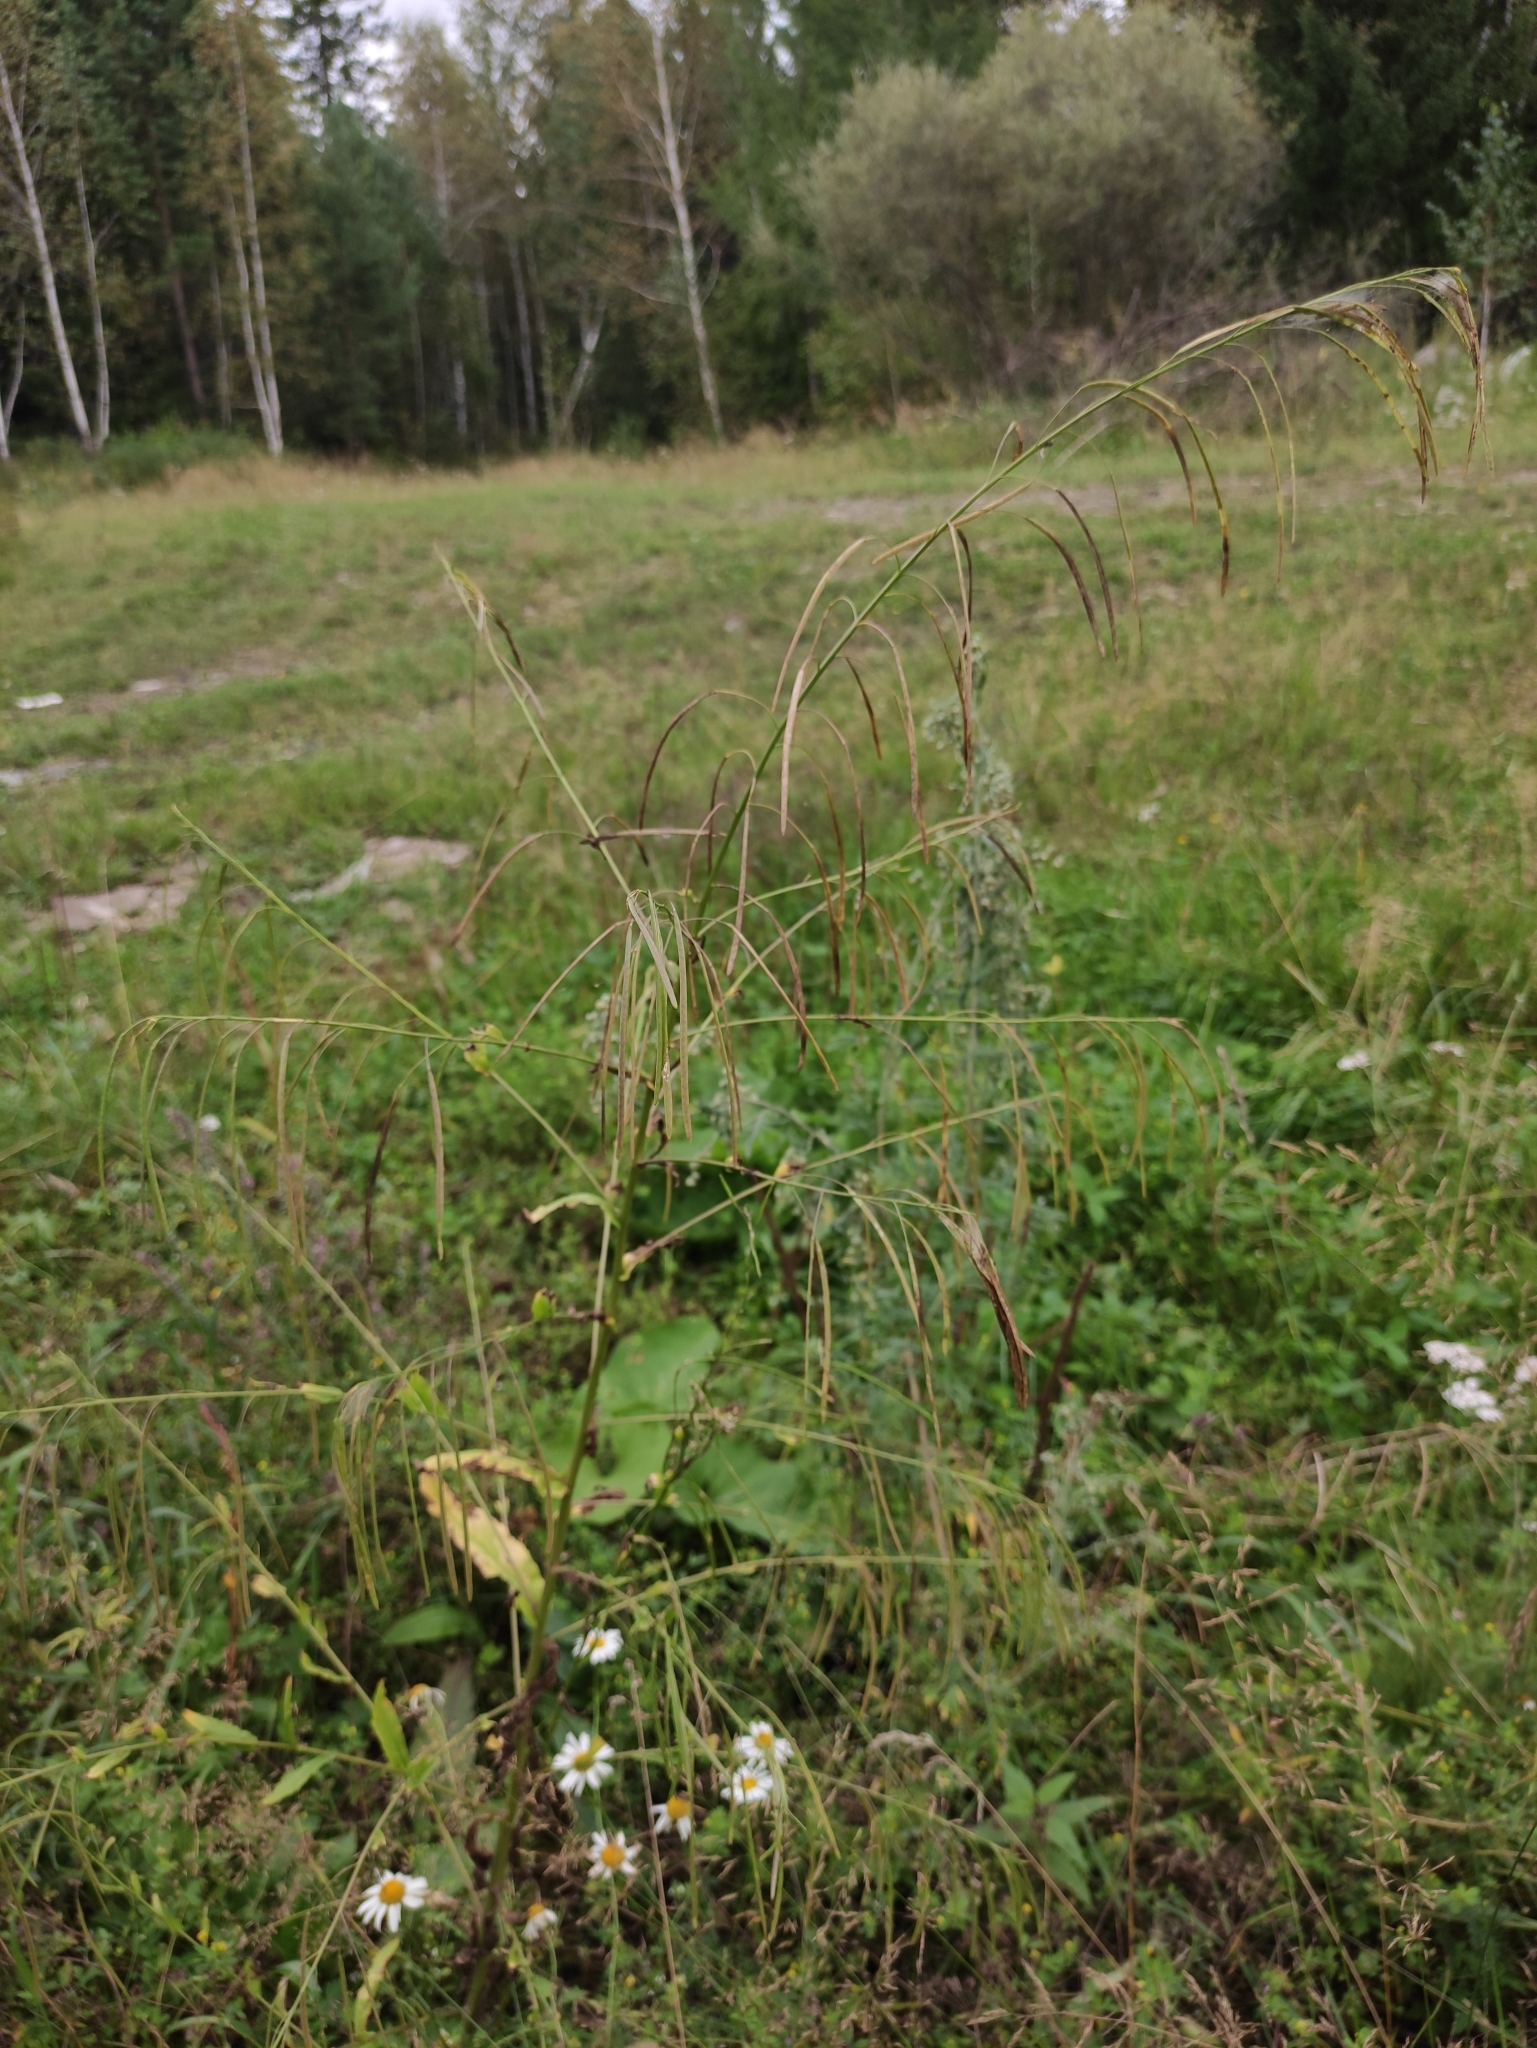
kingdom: Plantae
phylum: Tracheophyta
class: Magnoliopsida
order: Brassicales
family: Brassicaceae
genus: Catolobus
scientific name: Catolobus pendulus
